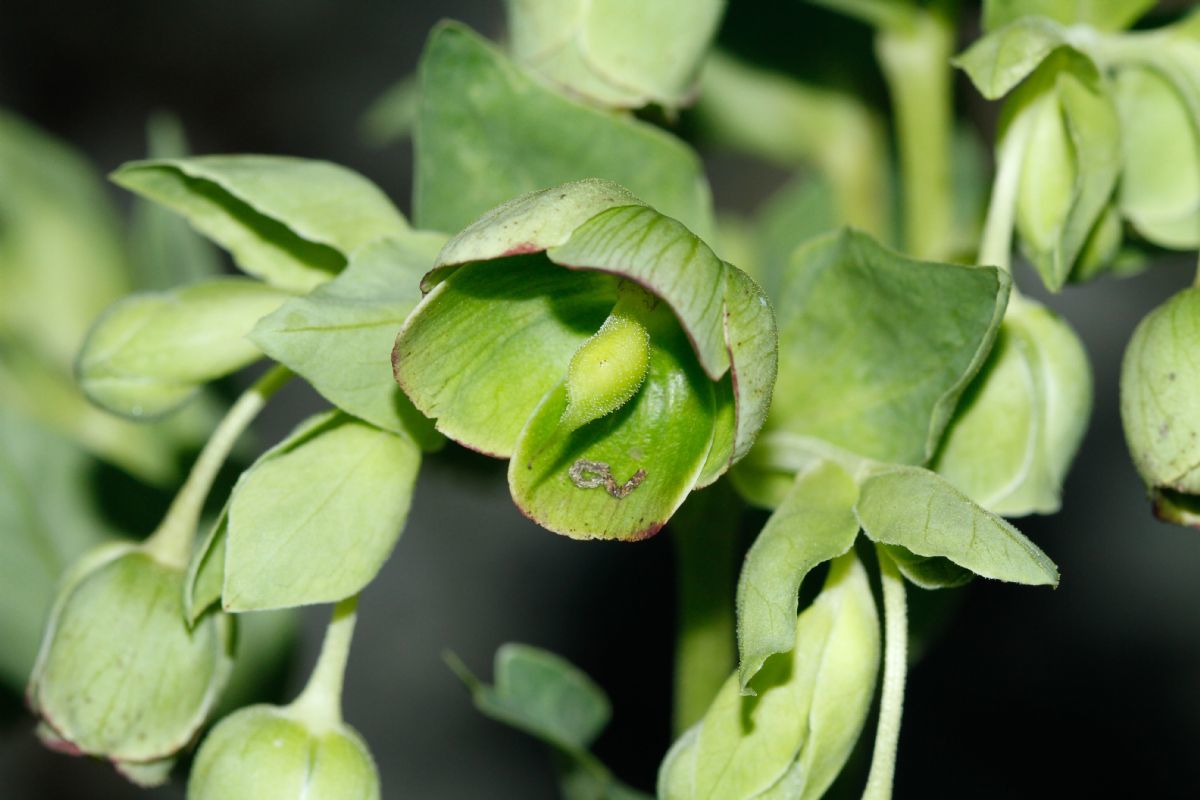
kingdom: Plantae
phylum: Tracheophyta
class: Magnoliopsida
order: Ranunculales
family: Ranunculaceae
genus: Helleborus
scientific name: Helleborus foetidus
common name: Stinking hellebore
